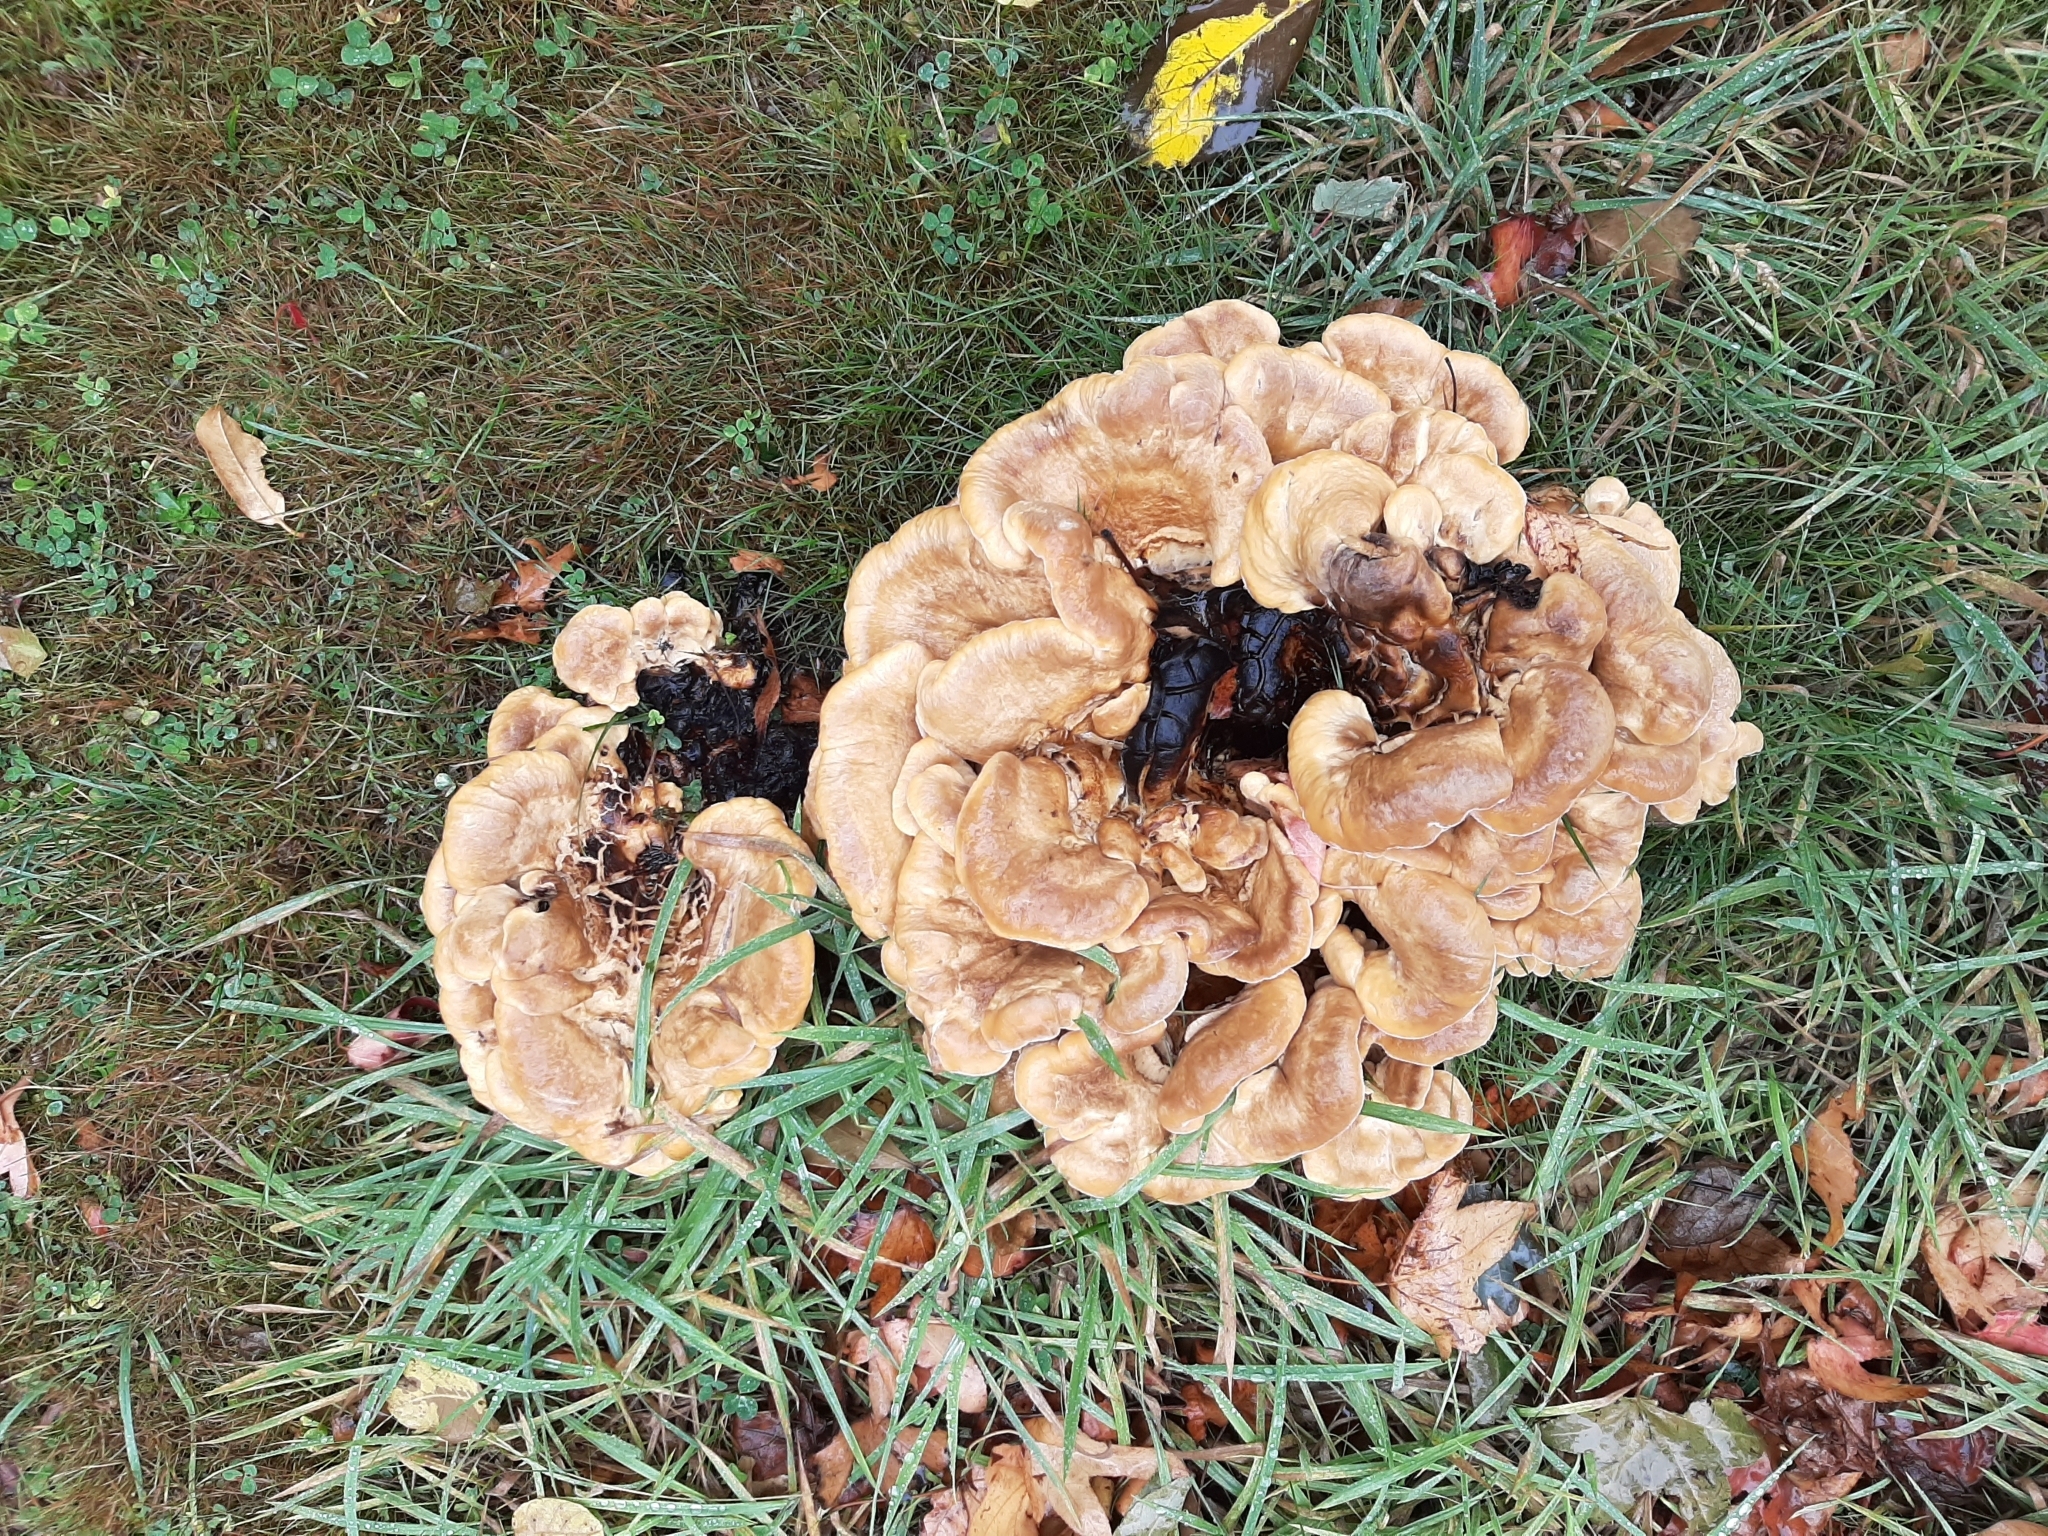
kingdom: Fungi
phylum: Basidiomycota
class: Agaricomycetes
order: Polyporales
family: Meripilaceae
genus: Meripilus
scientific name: Meripilus giganteus
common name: Giant polypore
